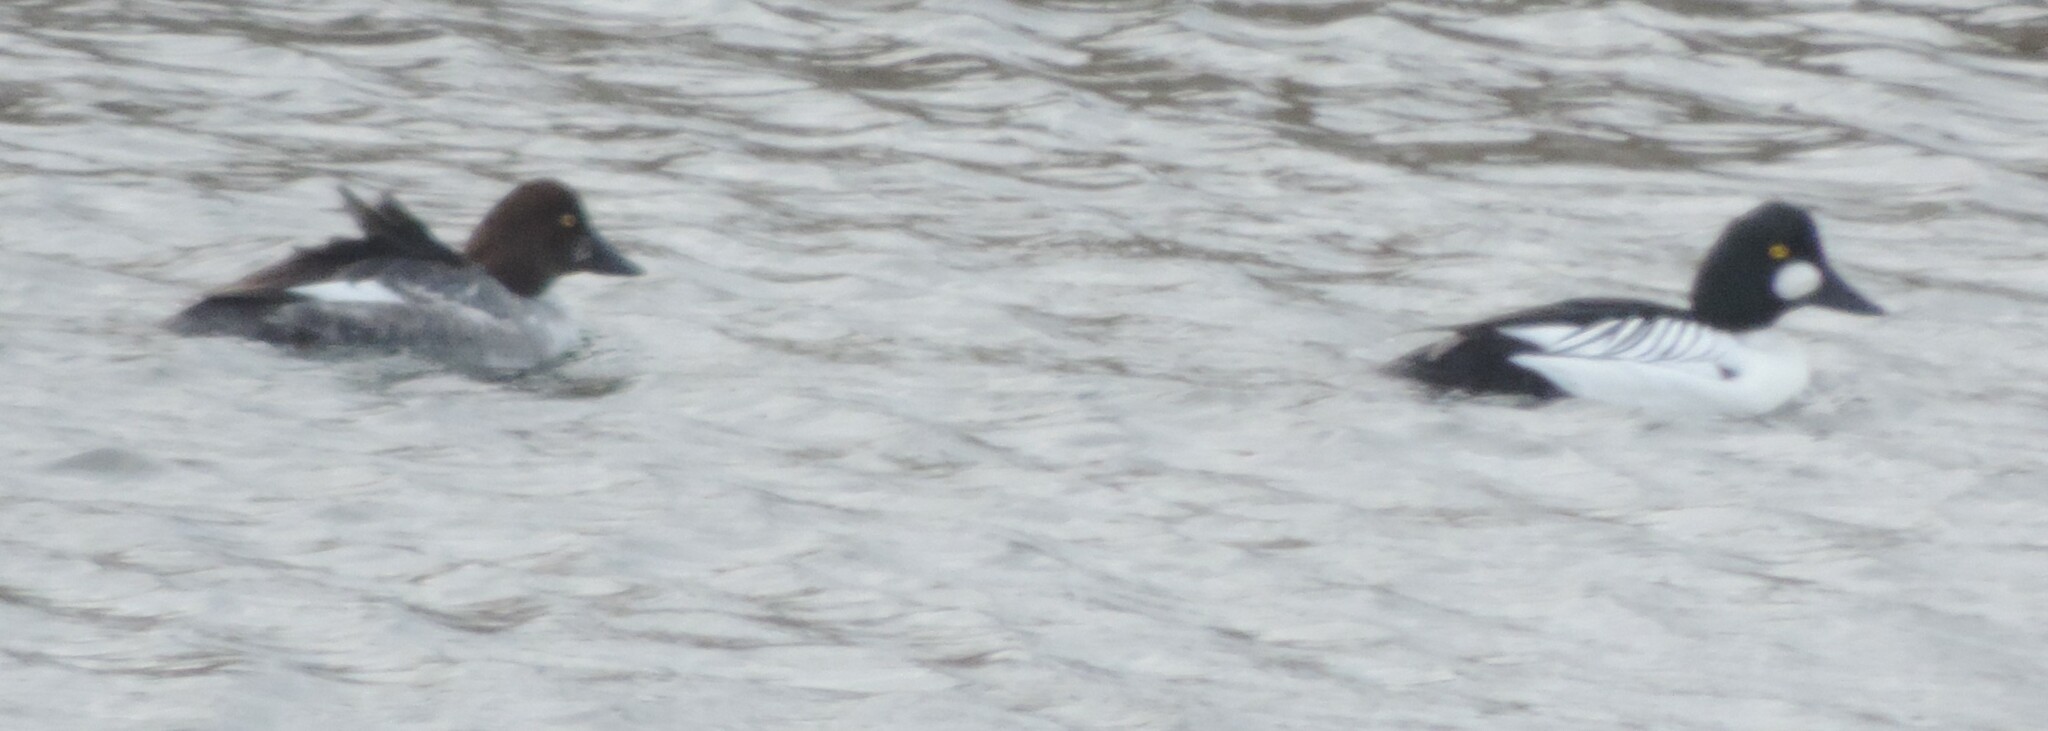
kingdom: Animalia
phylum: Chordata
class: Aves
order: Anseriformes
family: Anatidae
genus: Bucephala
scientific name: Bucephala clangula
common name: Common goldeneye
